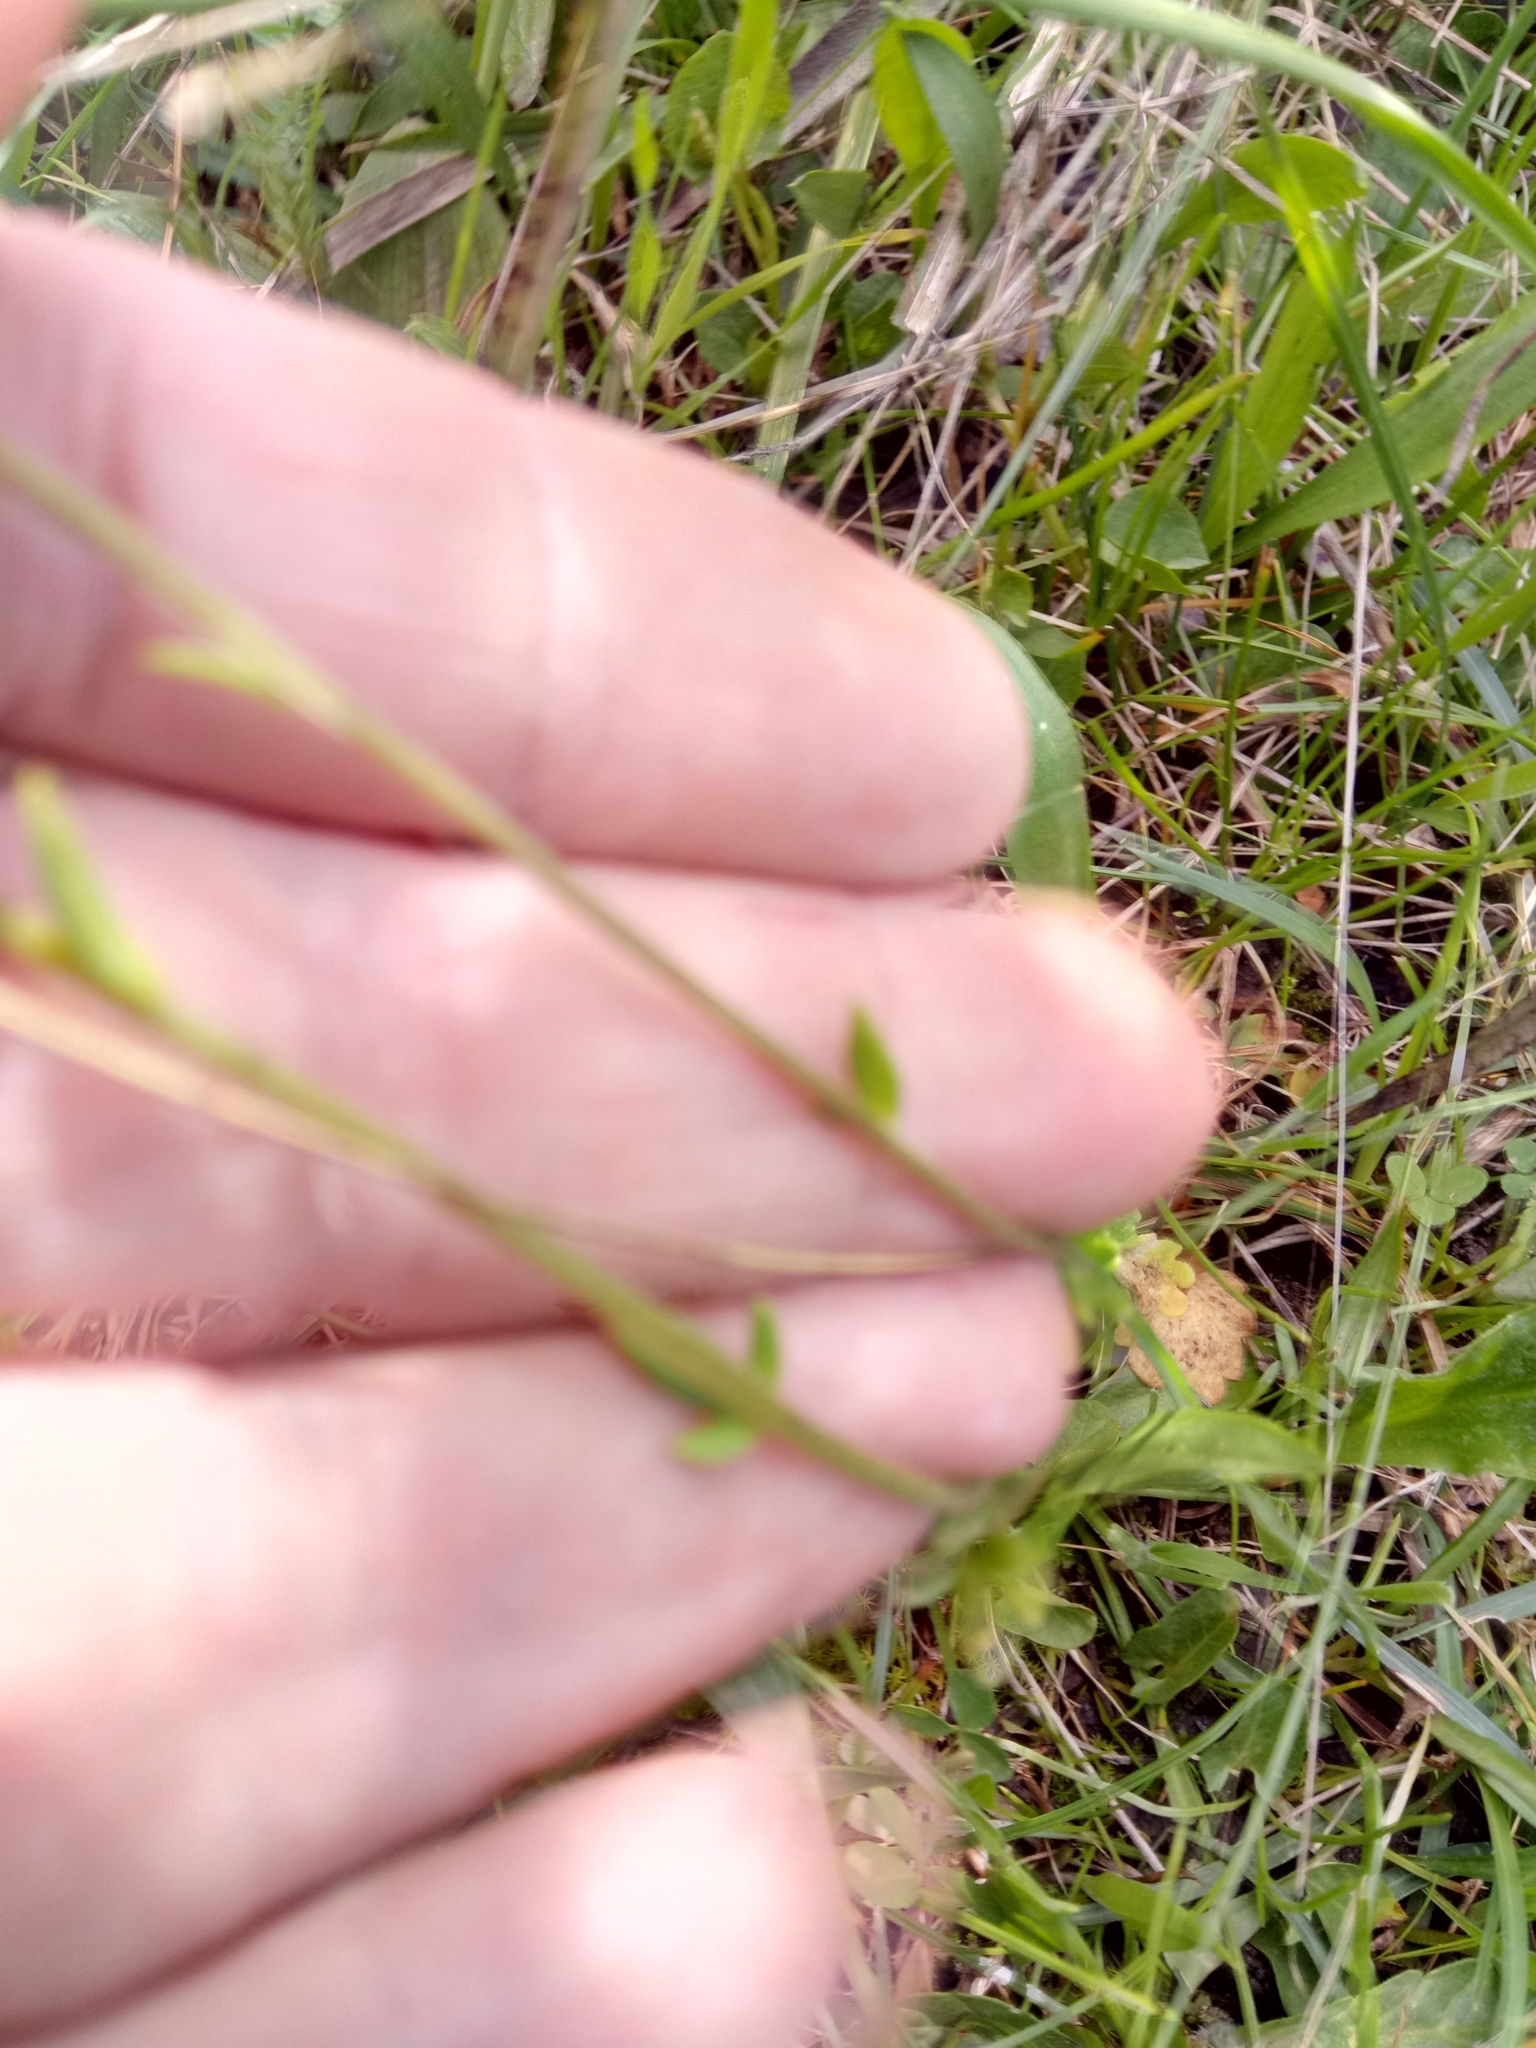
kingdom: Plantae
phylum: Tracheophyta
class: Magnoliopsida
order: Saxifragales
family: Saxifragaceae
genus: Saxifraga
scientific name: Saxifraga carpetana
